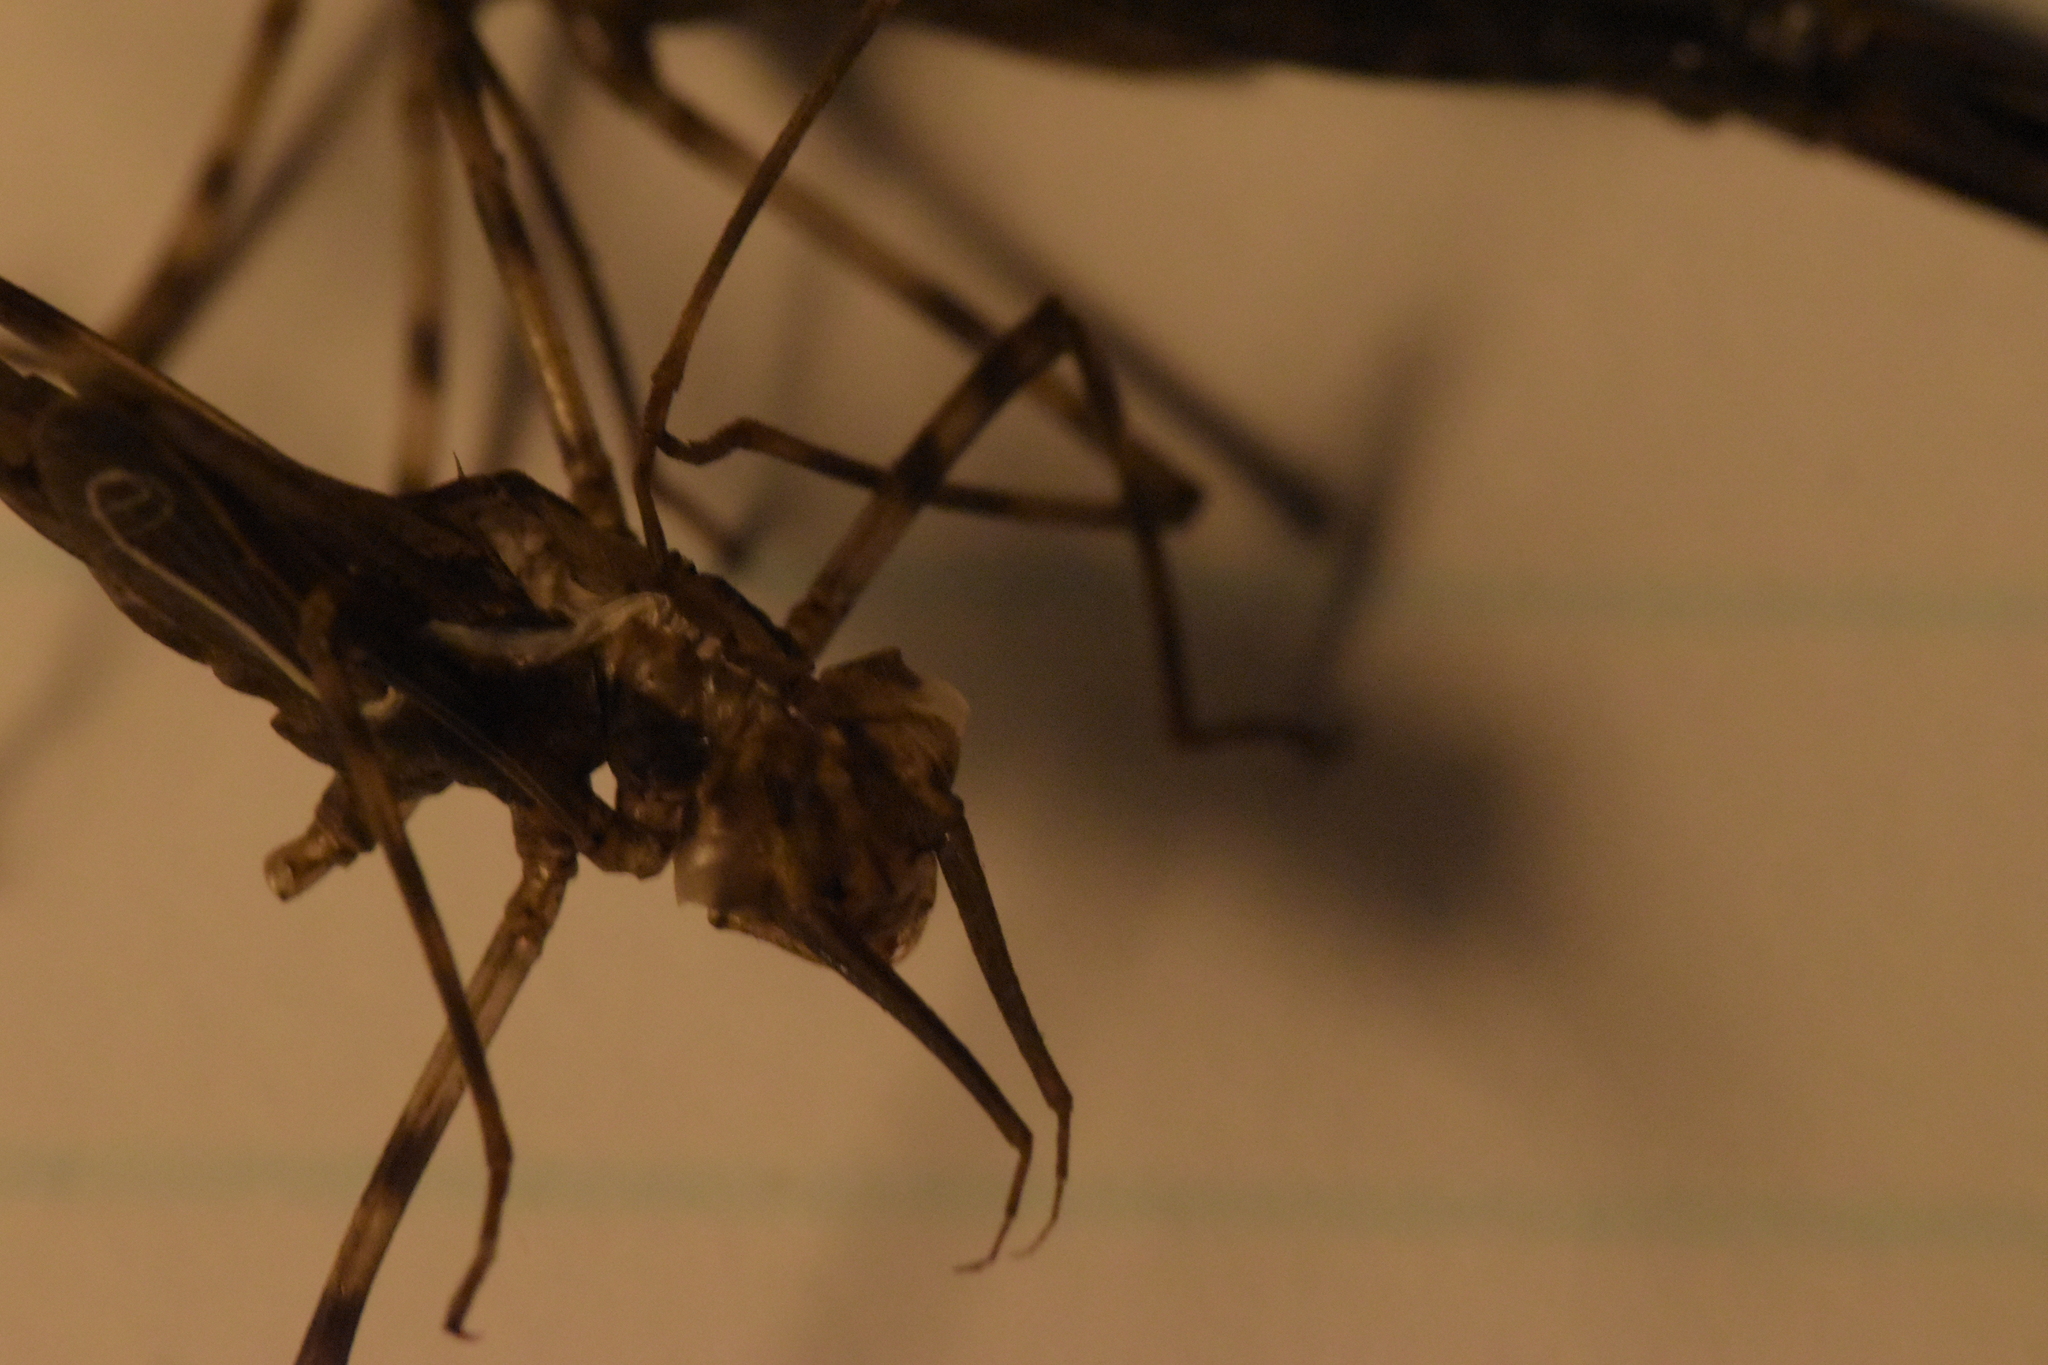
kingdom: Animalia
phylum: Arthropoda
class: Insecta
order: Odonata
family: Calopterygidae
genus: Calopteryx
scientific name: Calopteryx splendens
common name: Banded demoiselle
